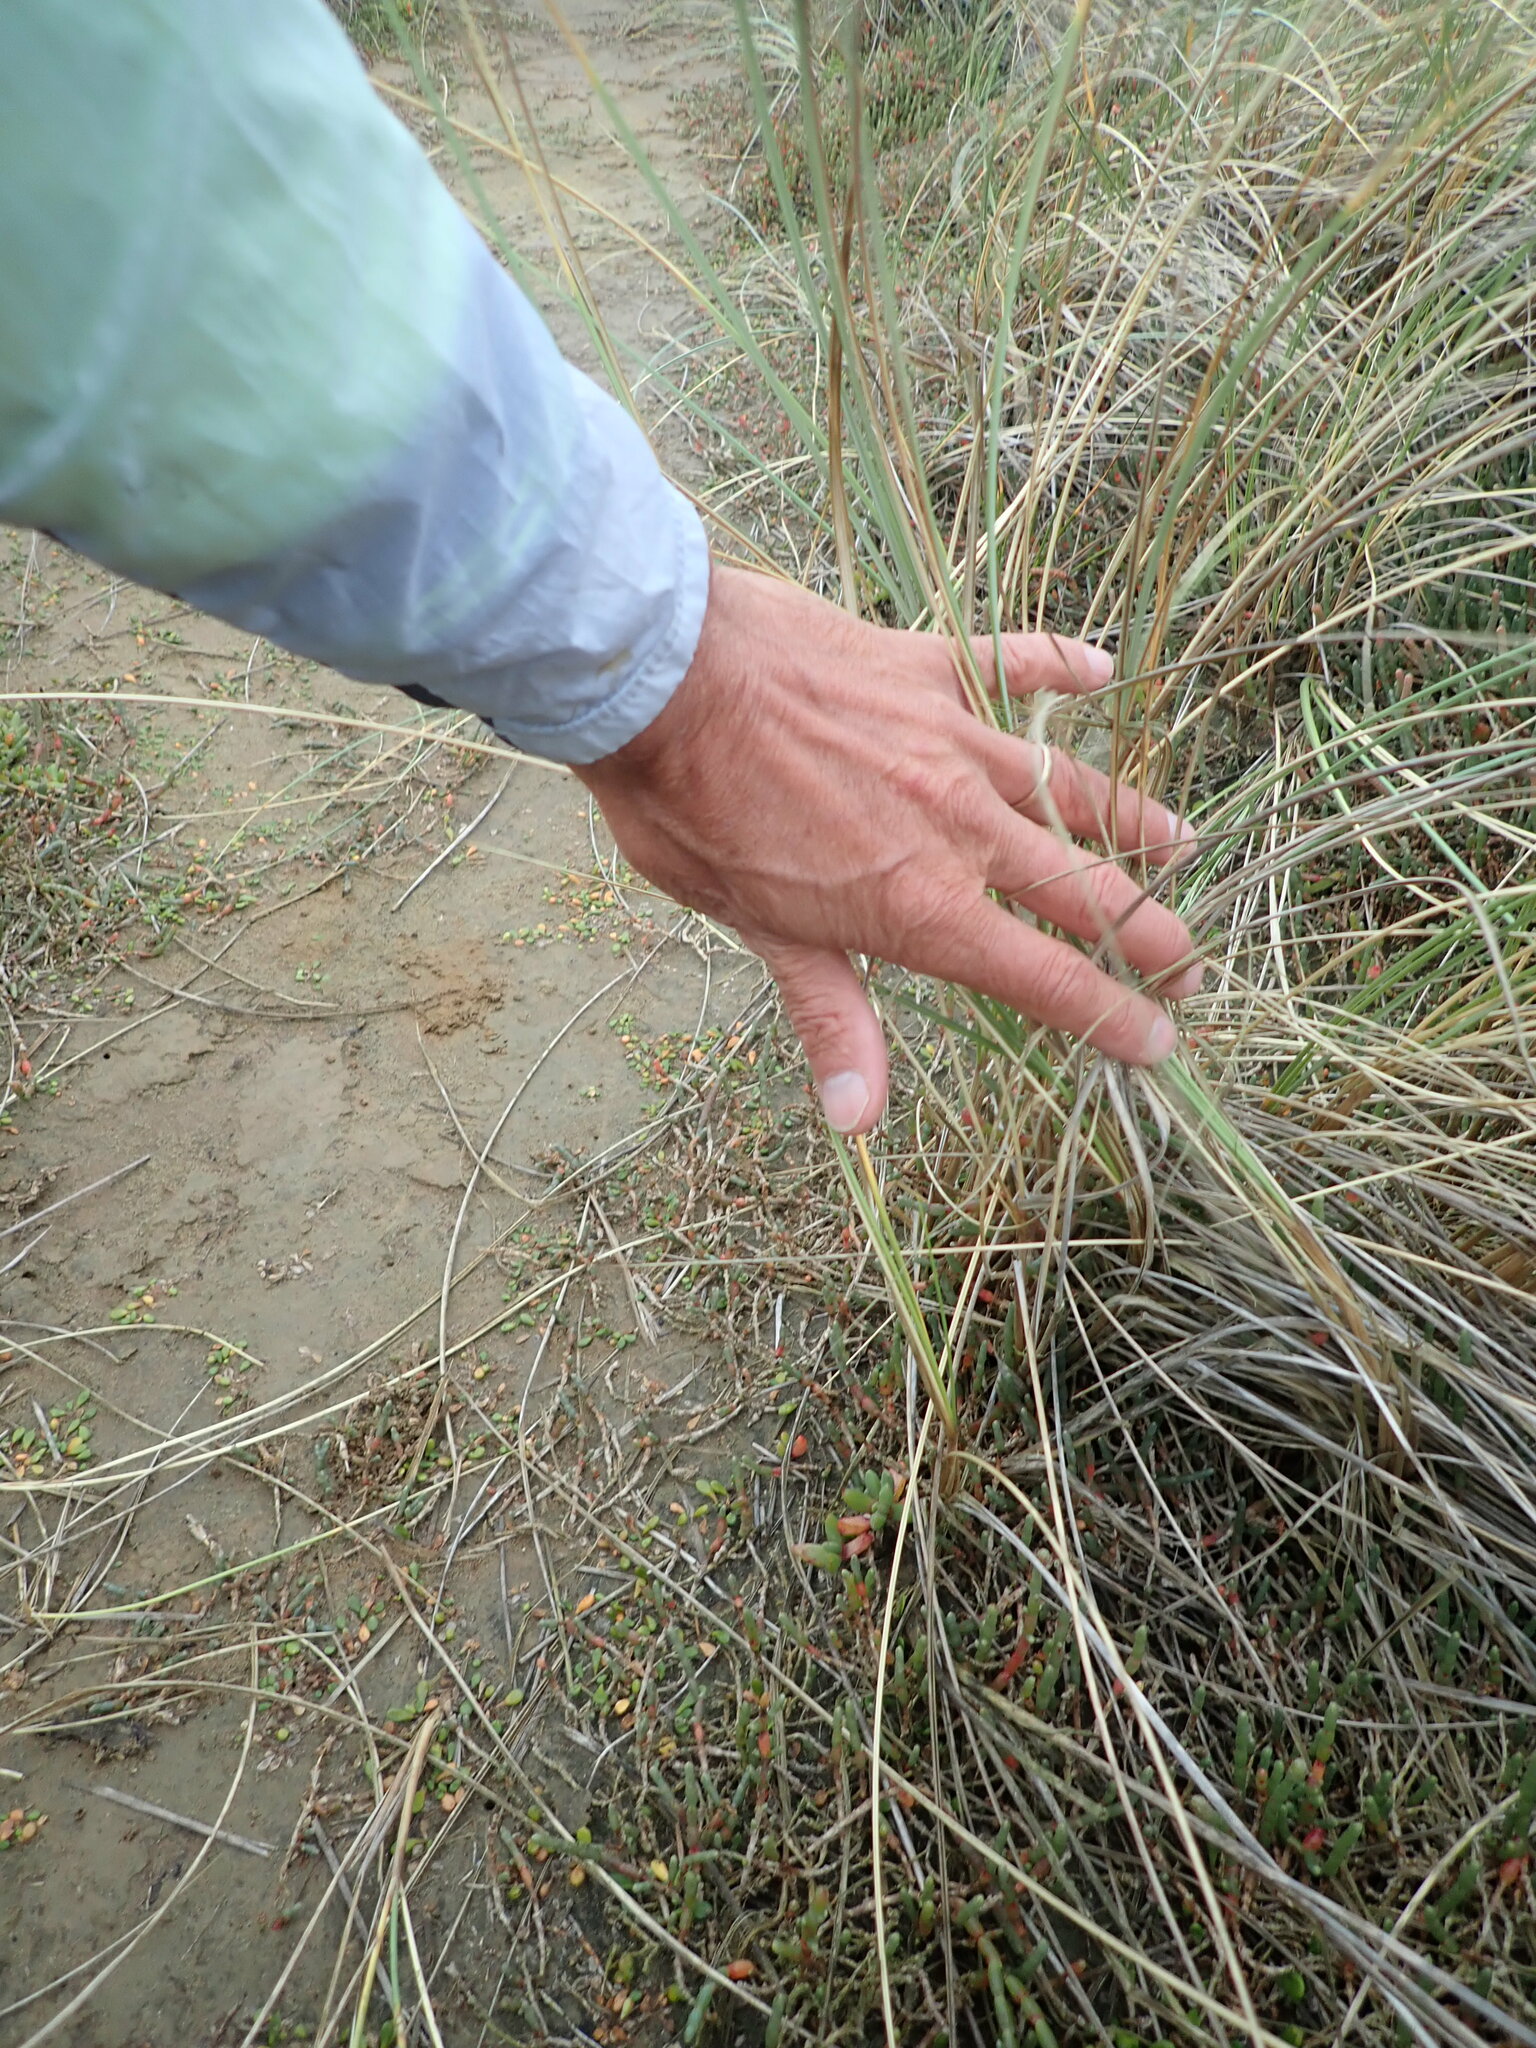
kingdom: Plantae
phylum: Tracheophyta
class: Liliopsida
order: Poales
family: Poaceae
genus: Calamagrostis
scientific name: Calamagrostis arenaria
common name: European beachgrass
